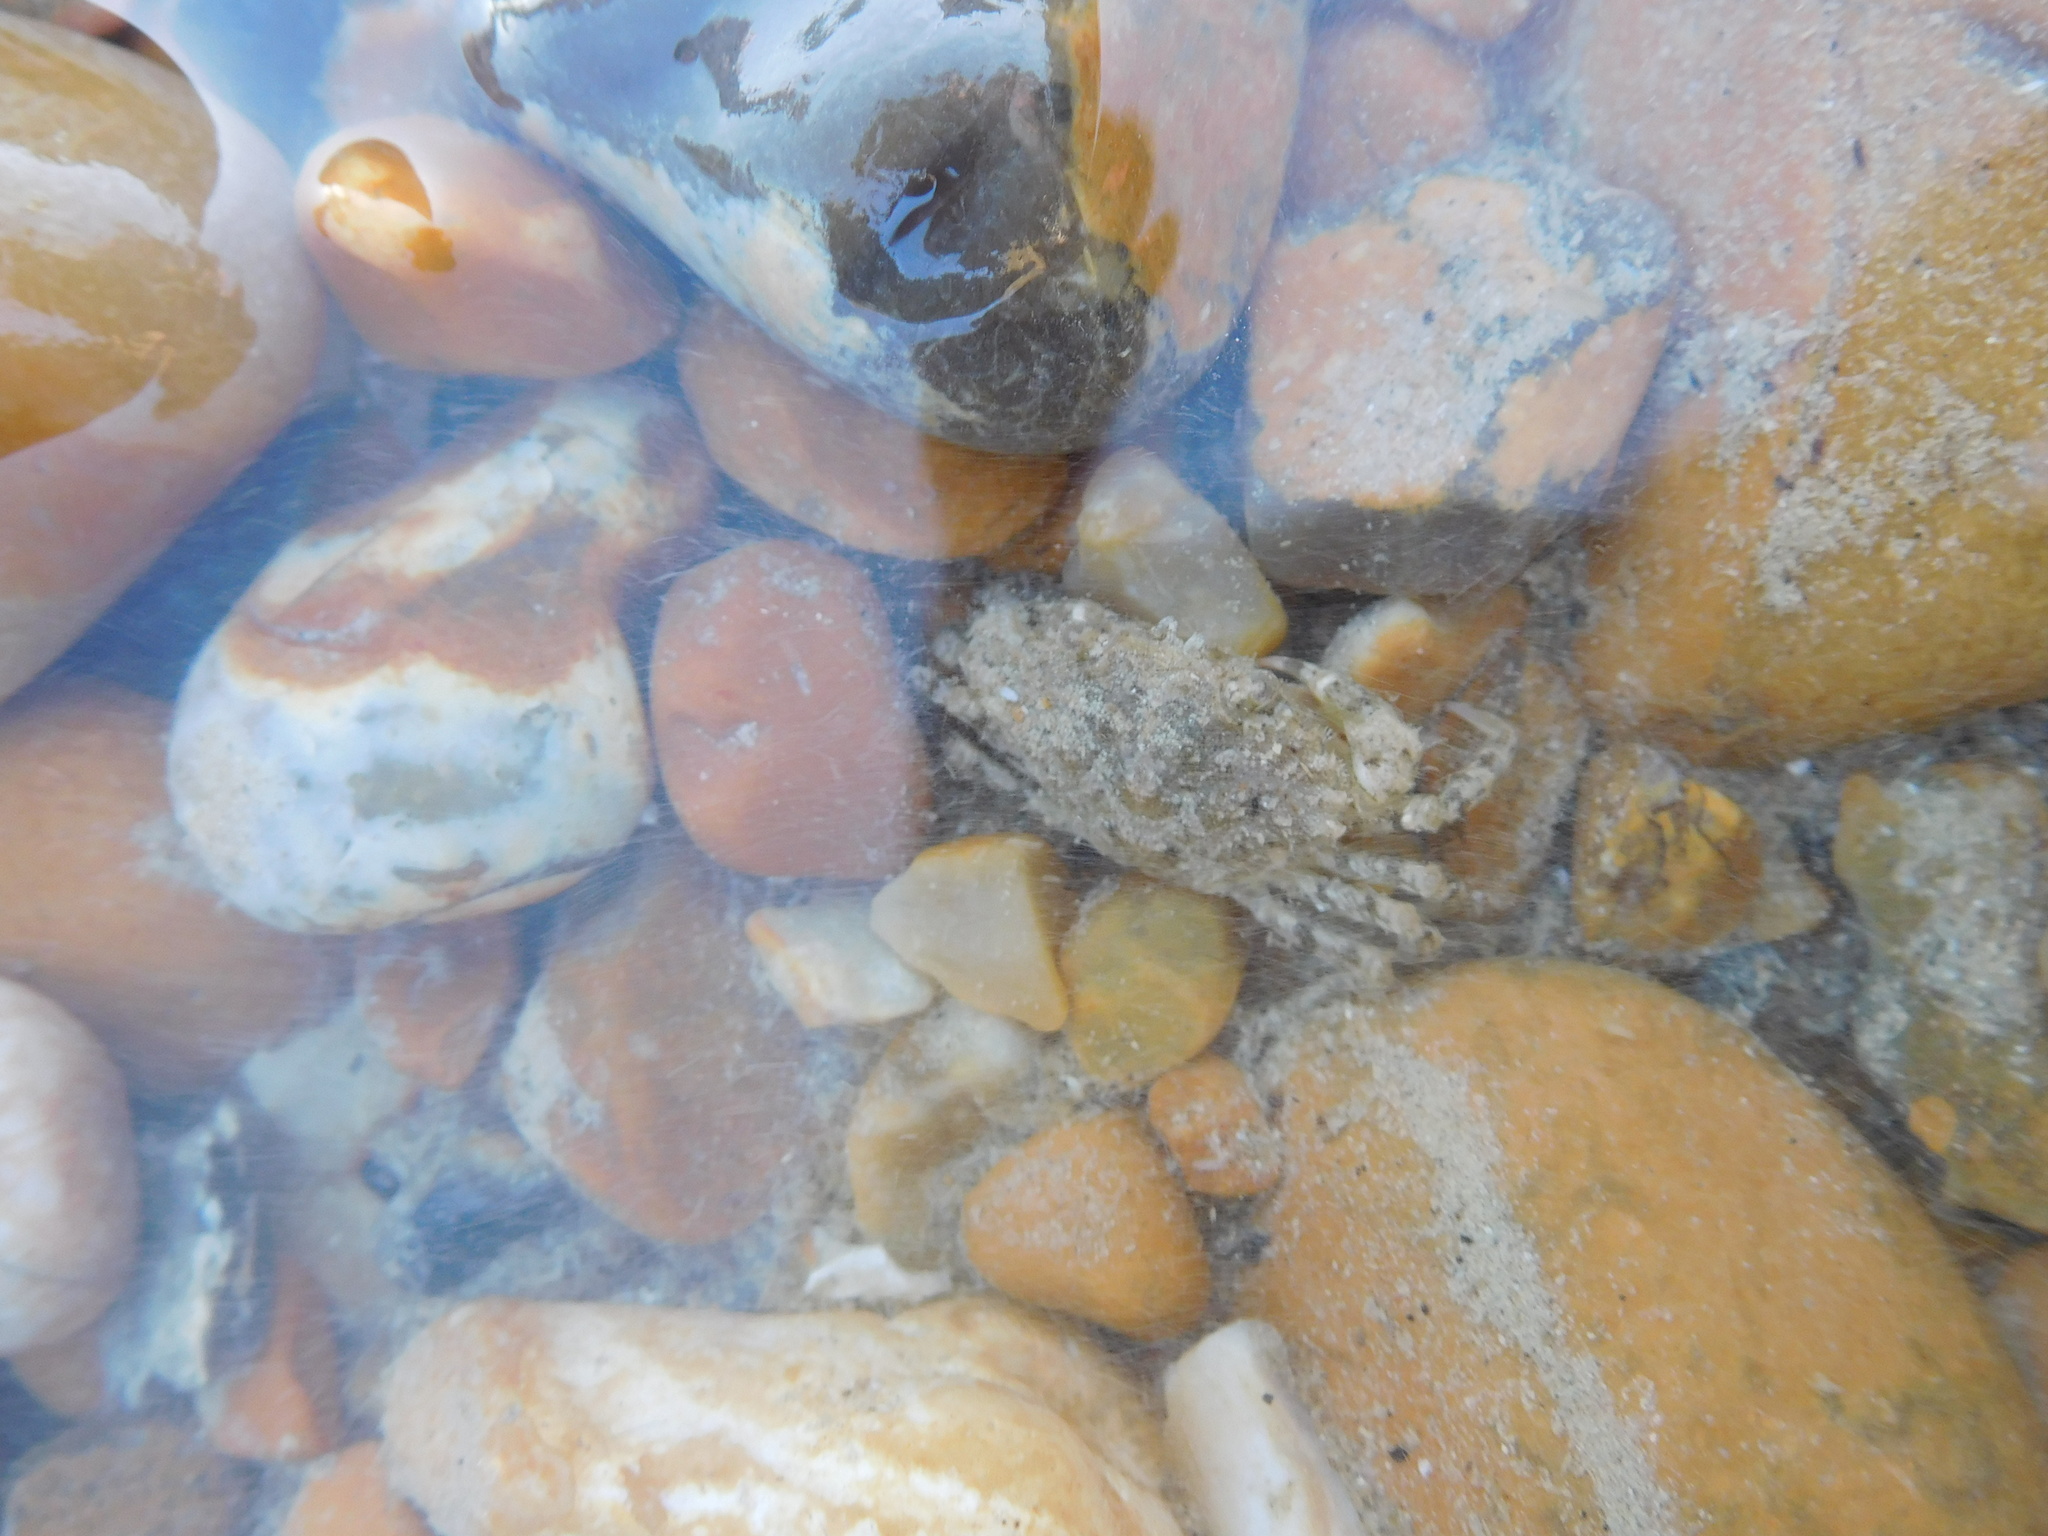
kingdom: Animalia
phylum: Arthropoda
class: Malacostraca
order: Decapoda
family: Carcinidae
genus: Carcinus
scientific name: Carcinus maenas
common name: European green crab
